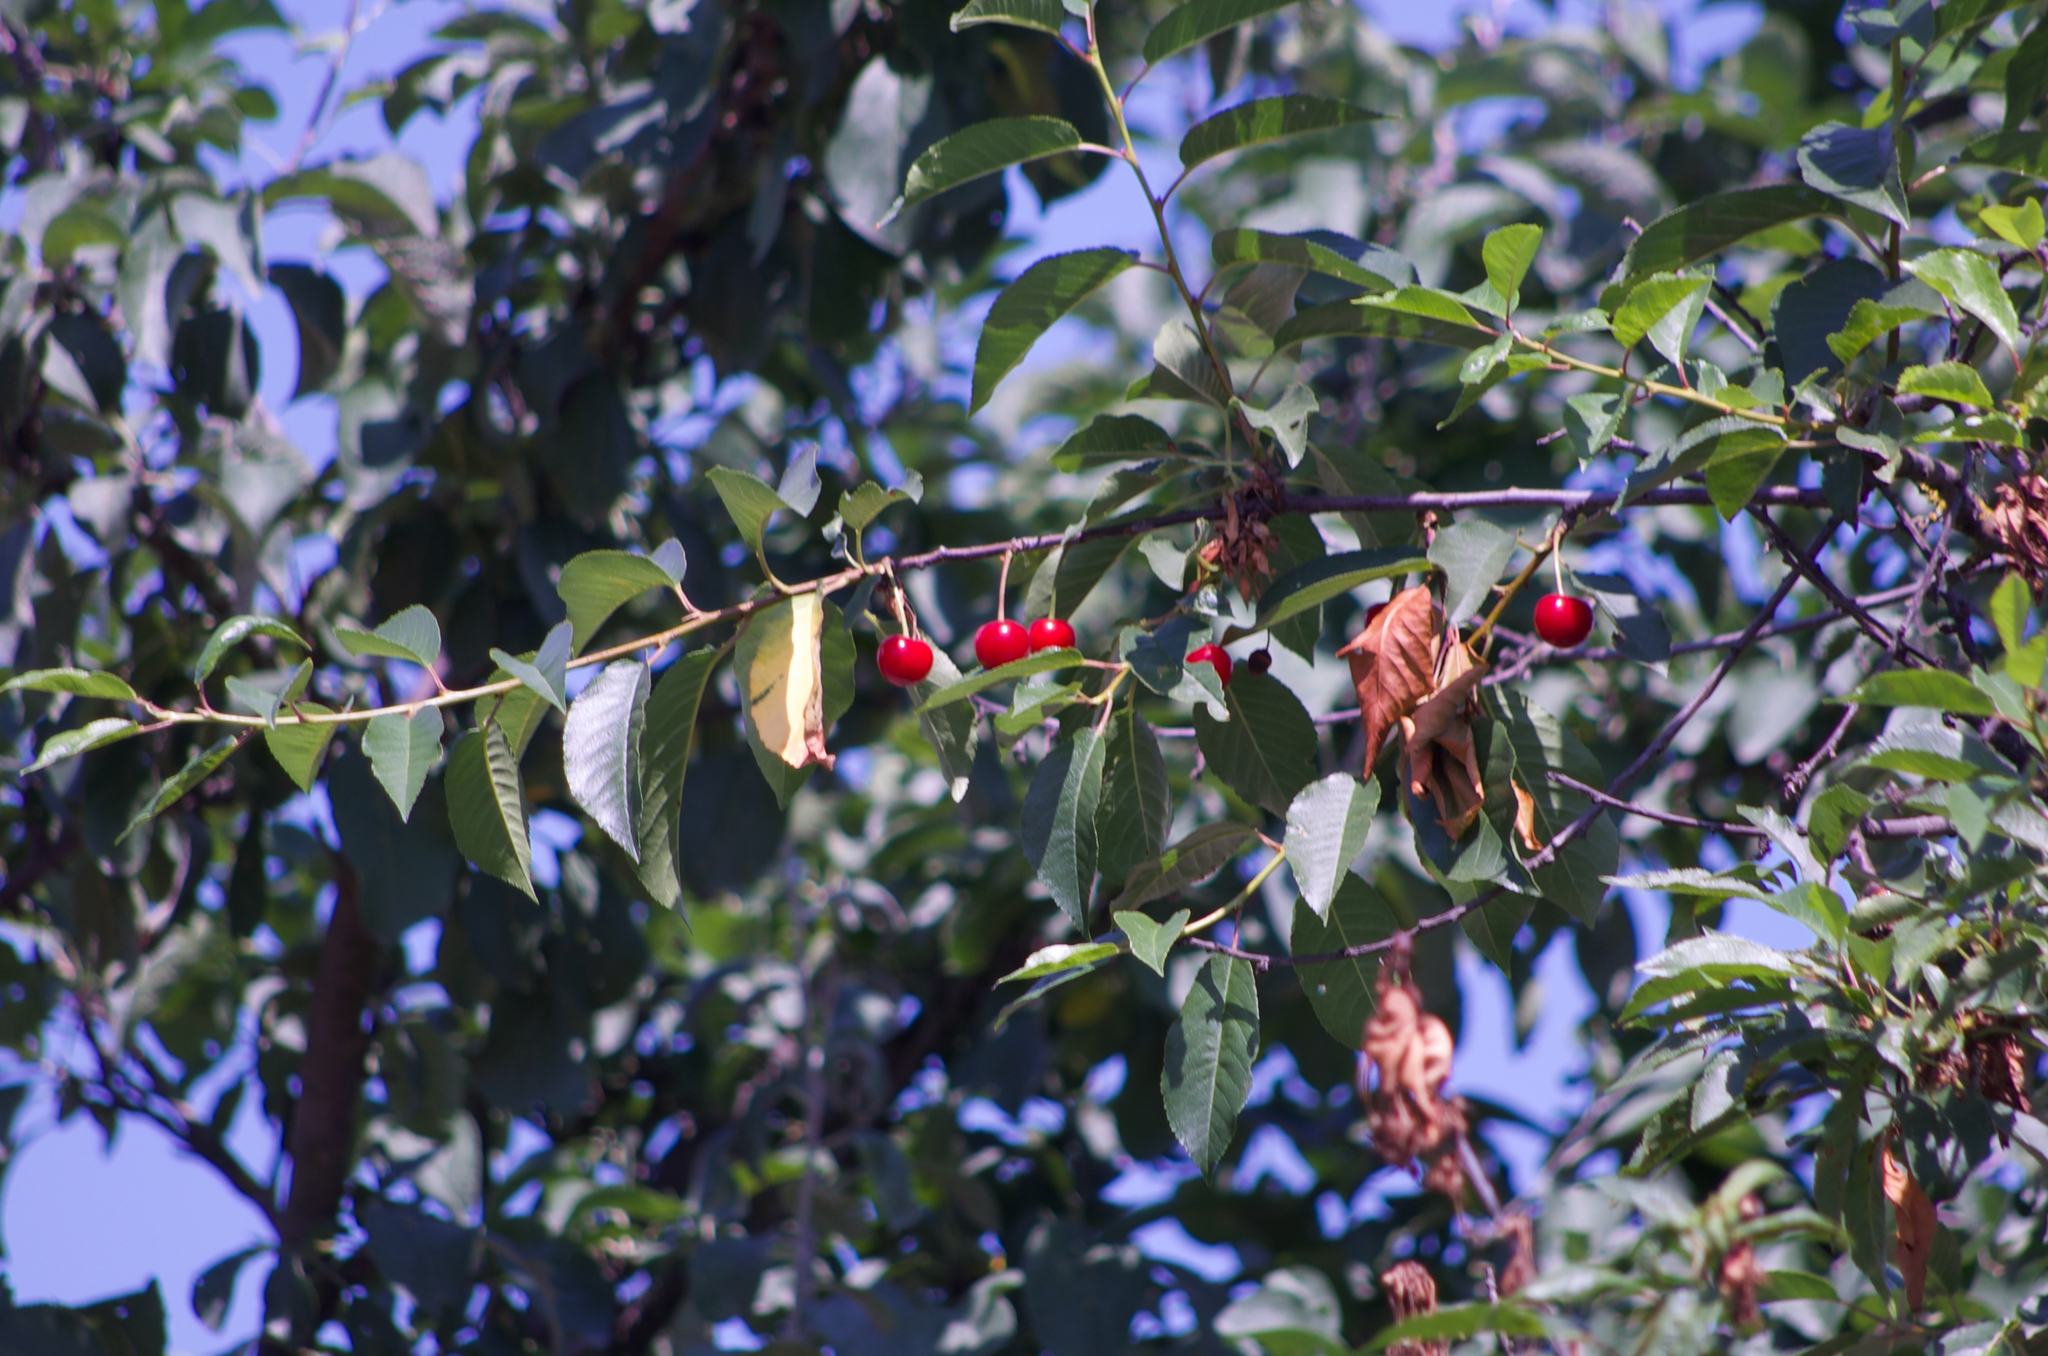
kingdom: Plantae
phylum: Tracheophyta
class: Magnoliopsida
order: Rosales
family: Rosaceae
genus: Prunus
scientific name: Prunus cerasus
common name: Morello cherry
